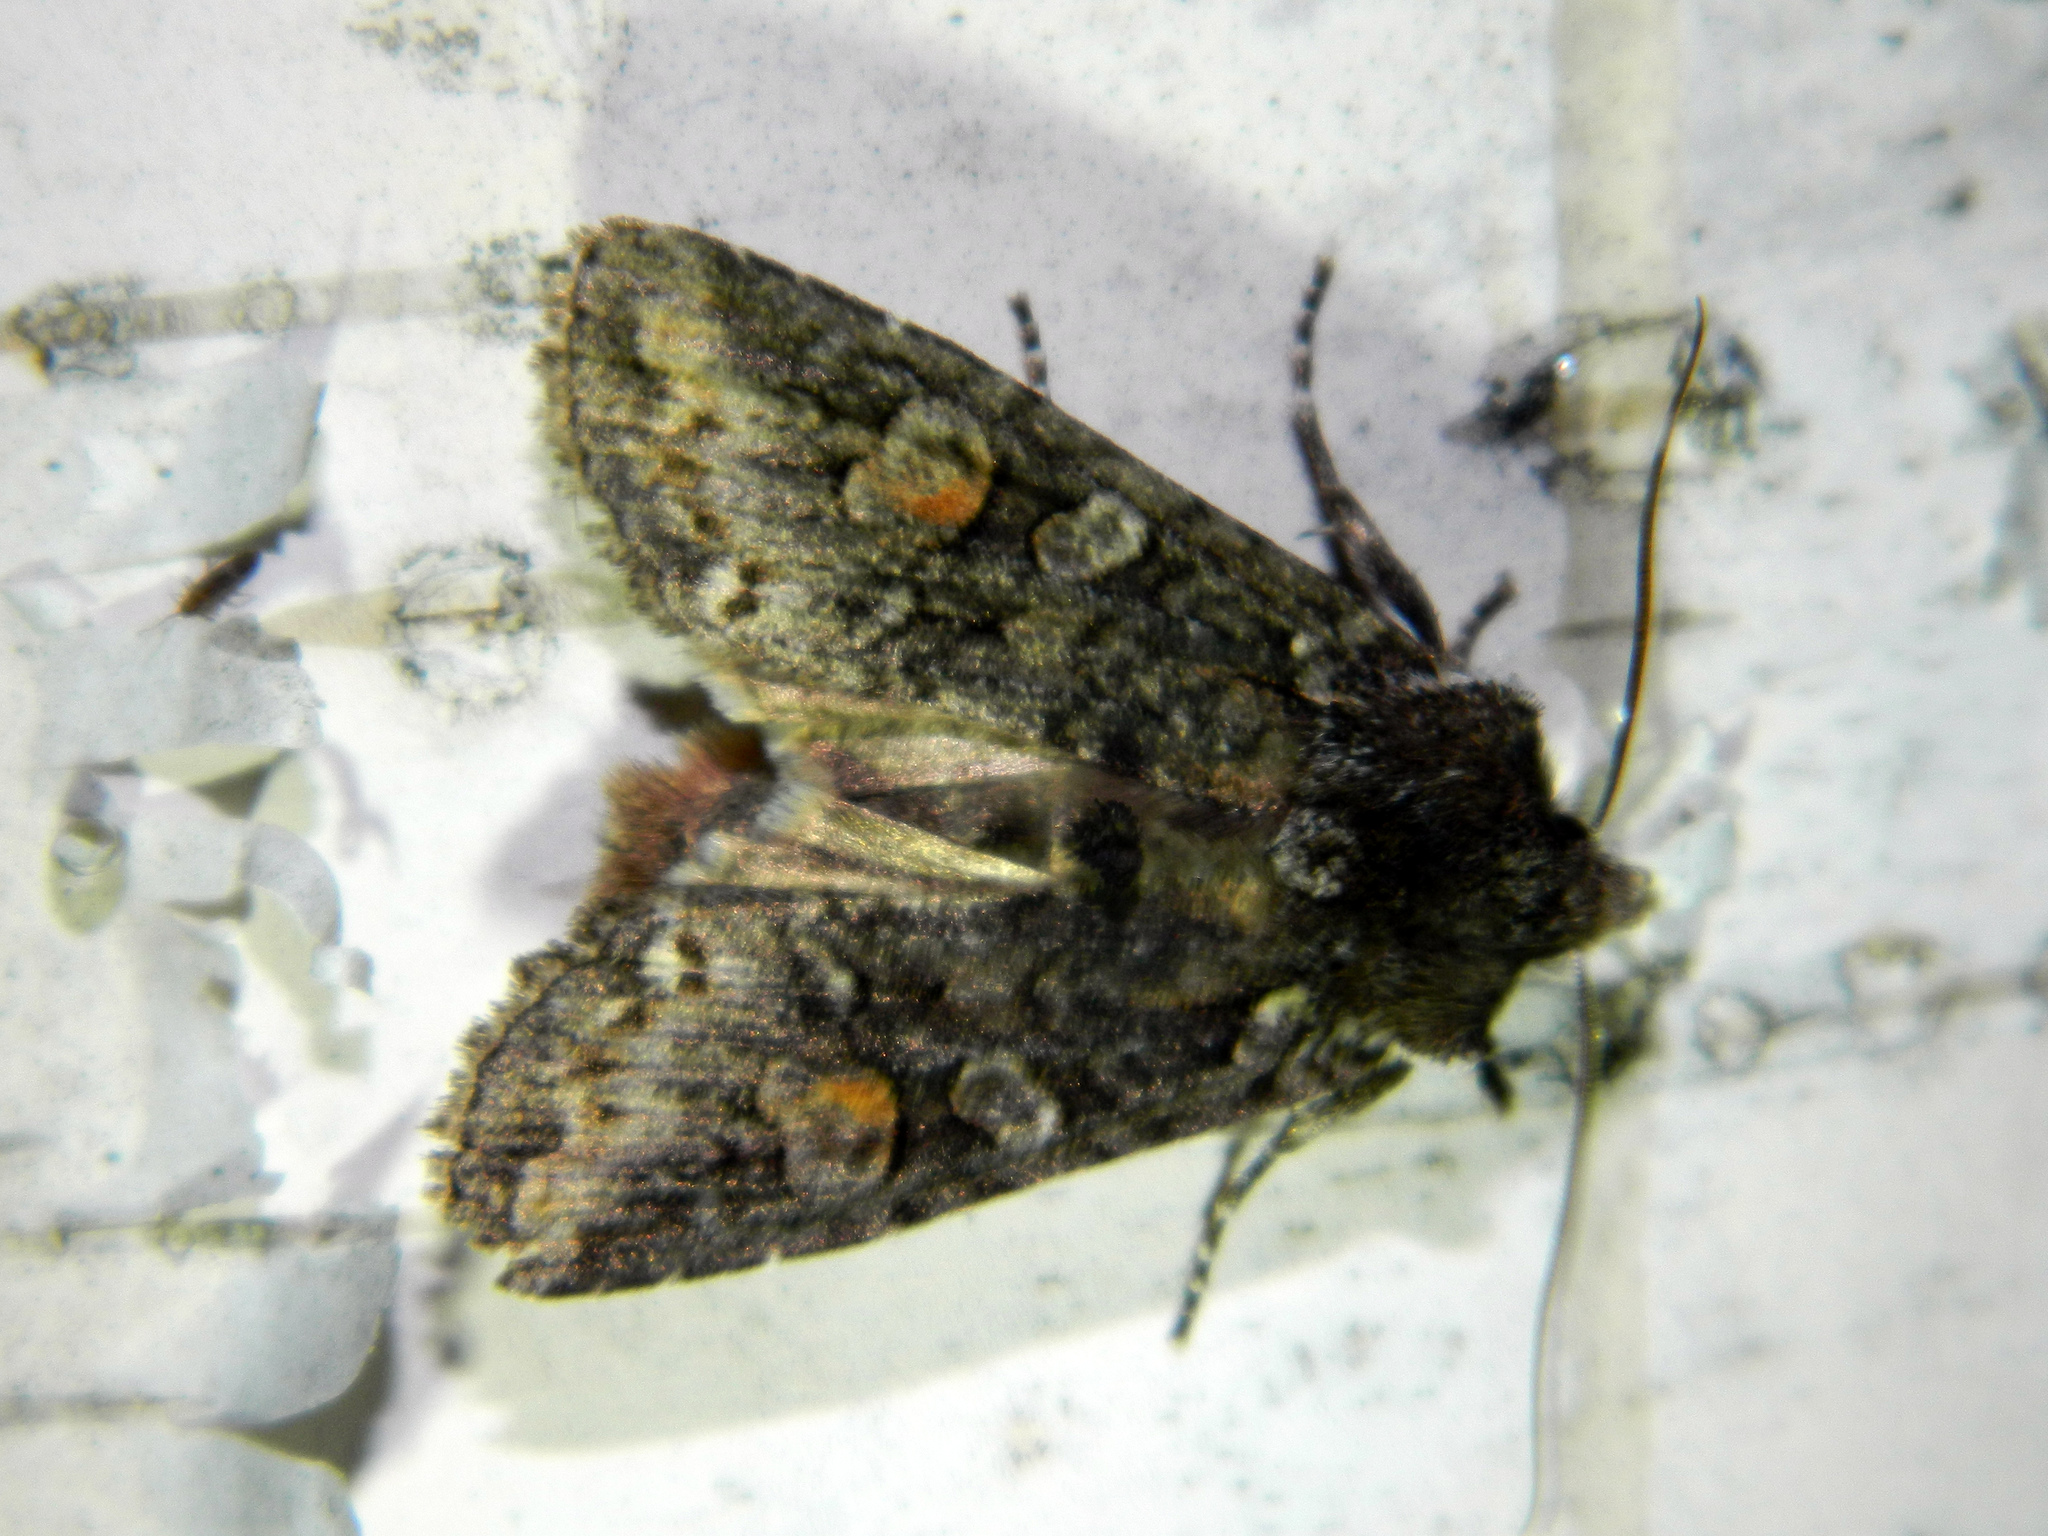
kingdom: Animalia
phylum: Arthropoda
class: Insecta
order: Lepidoptera
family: Noctuidae
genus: Lithophane
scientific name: Lithophane pexata
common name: Plush-naped pinion moth
